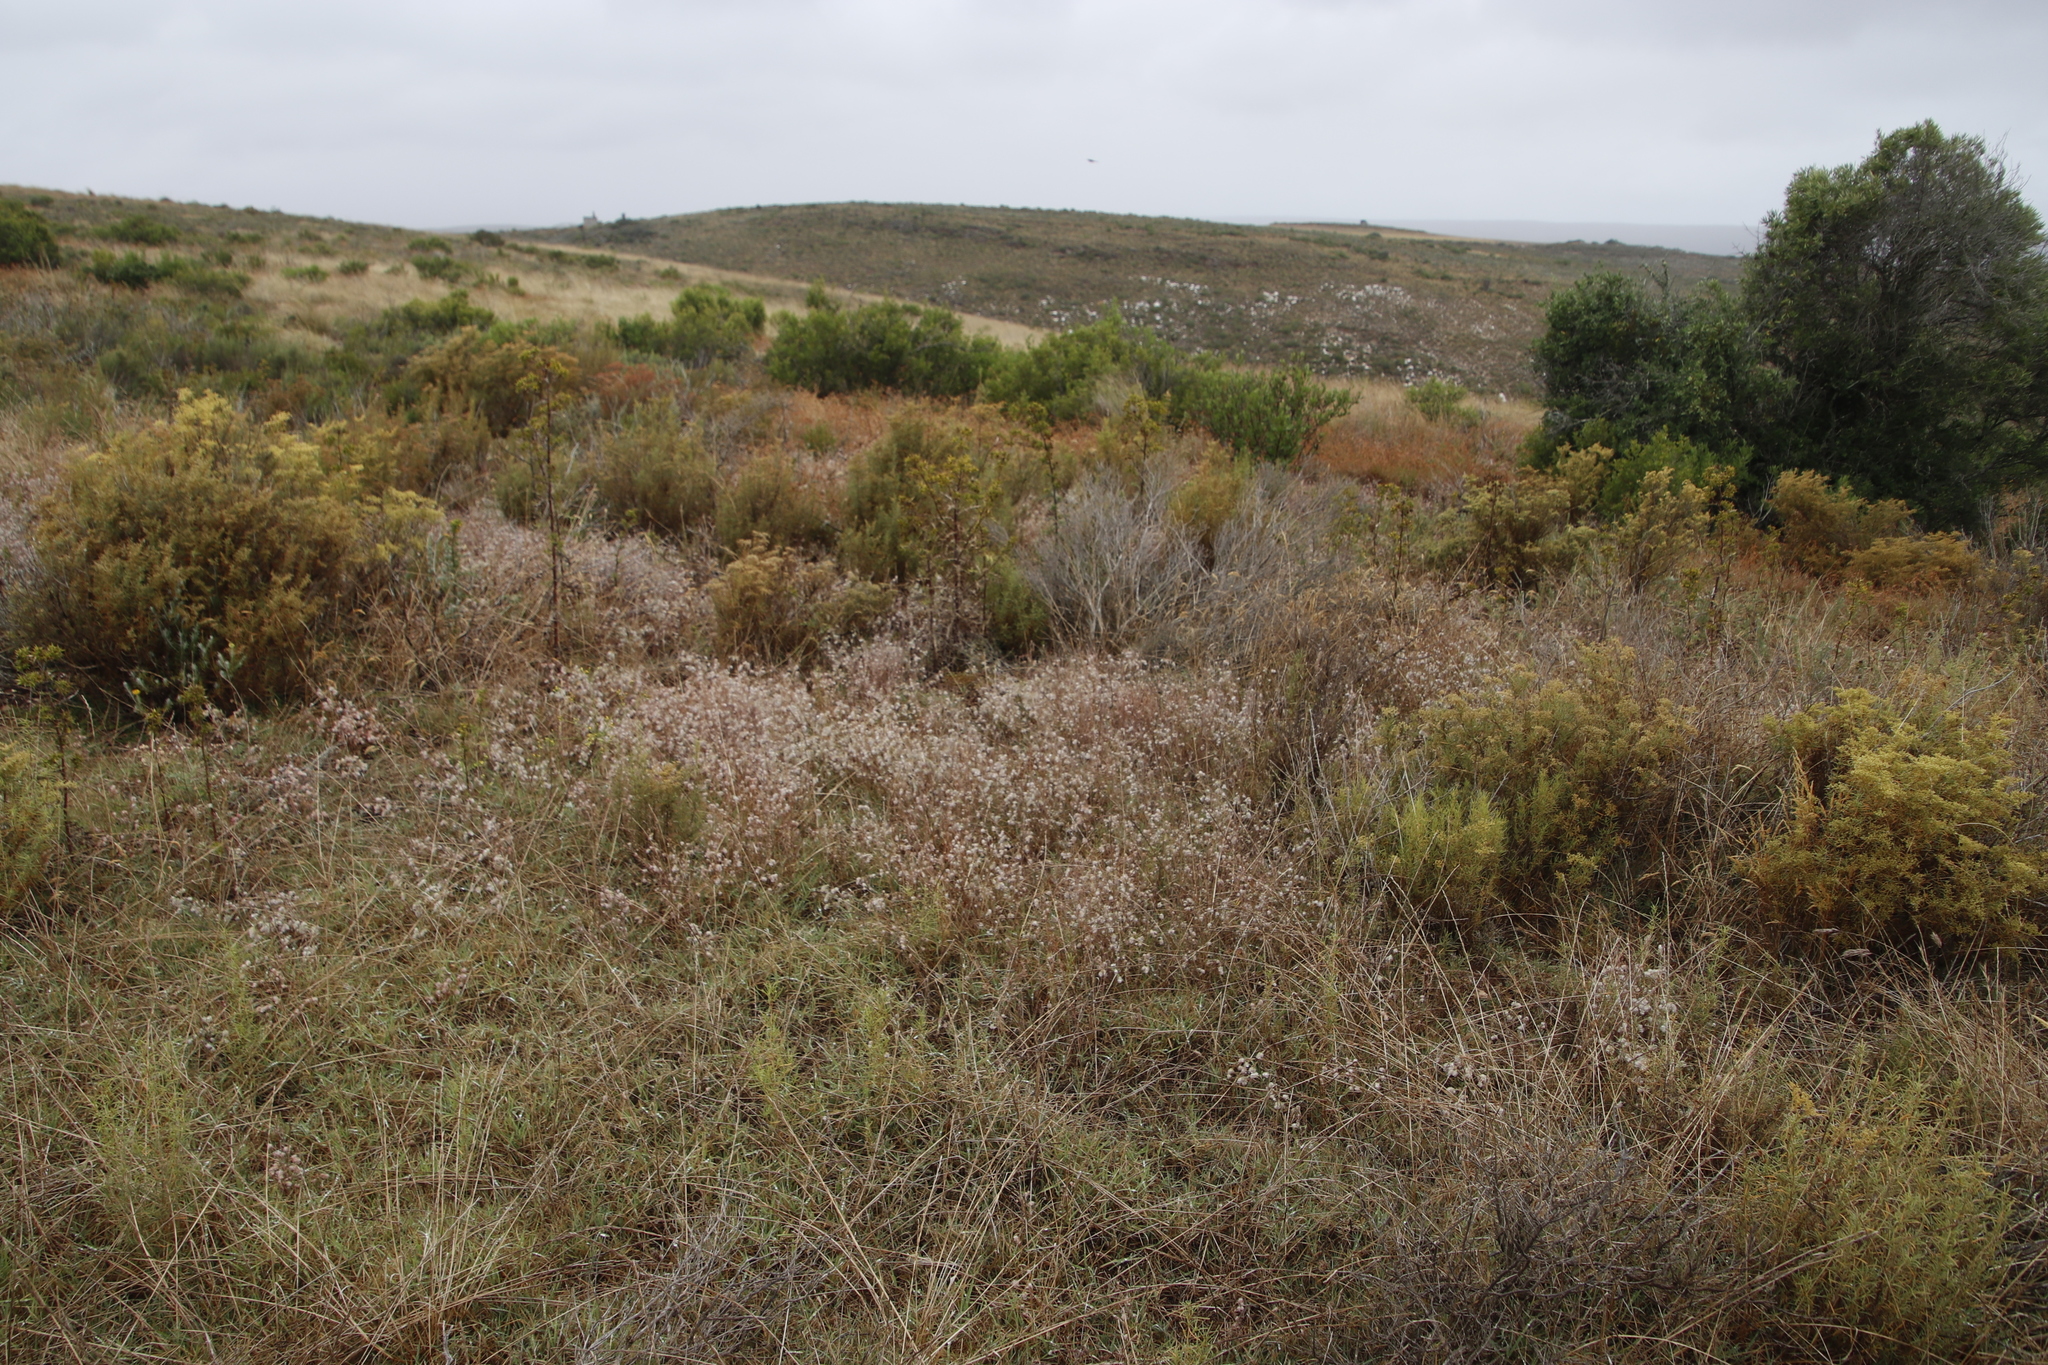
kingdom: Plantae
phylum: Tracheophyta
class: Magnoliopsida
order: Fabales
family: Fabaceae
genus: Trifolium
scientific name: Trifolium arvense
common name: Hare's-foot clover
